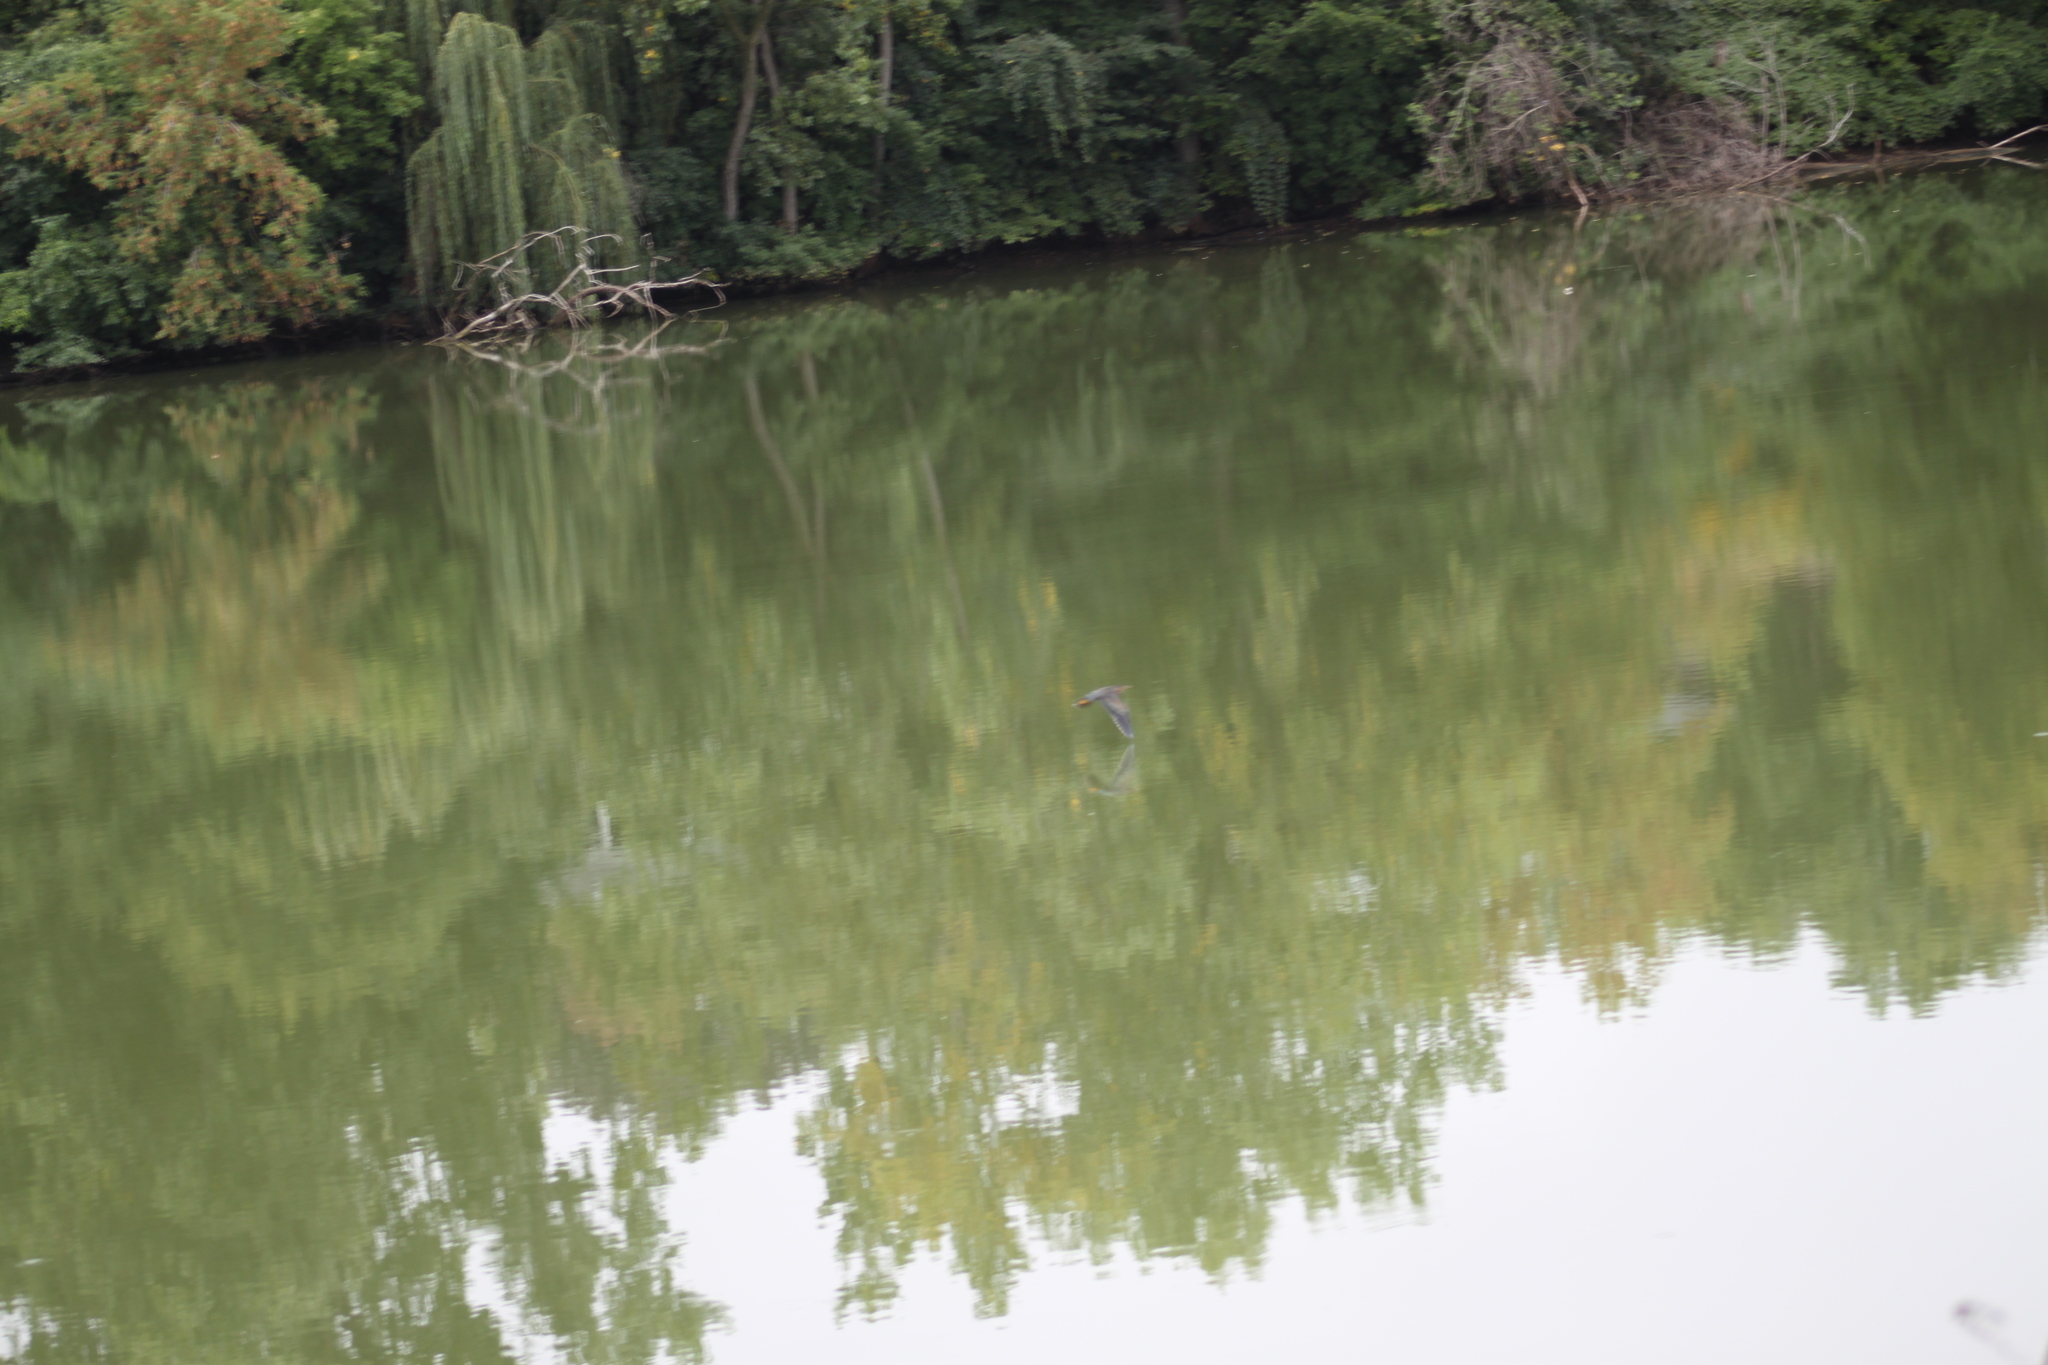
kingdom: Animalia
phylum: Chordata
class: Aves
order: Pelecaniformes
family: Ardeidae
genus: Butorides
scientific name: Butorides virescens
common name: Green heron
